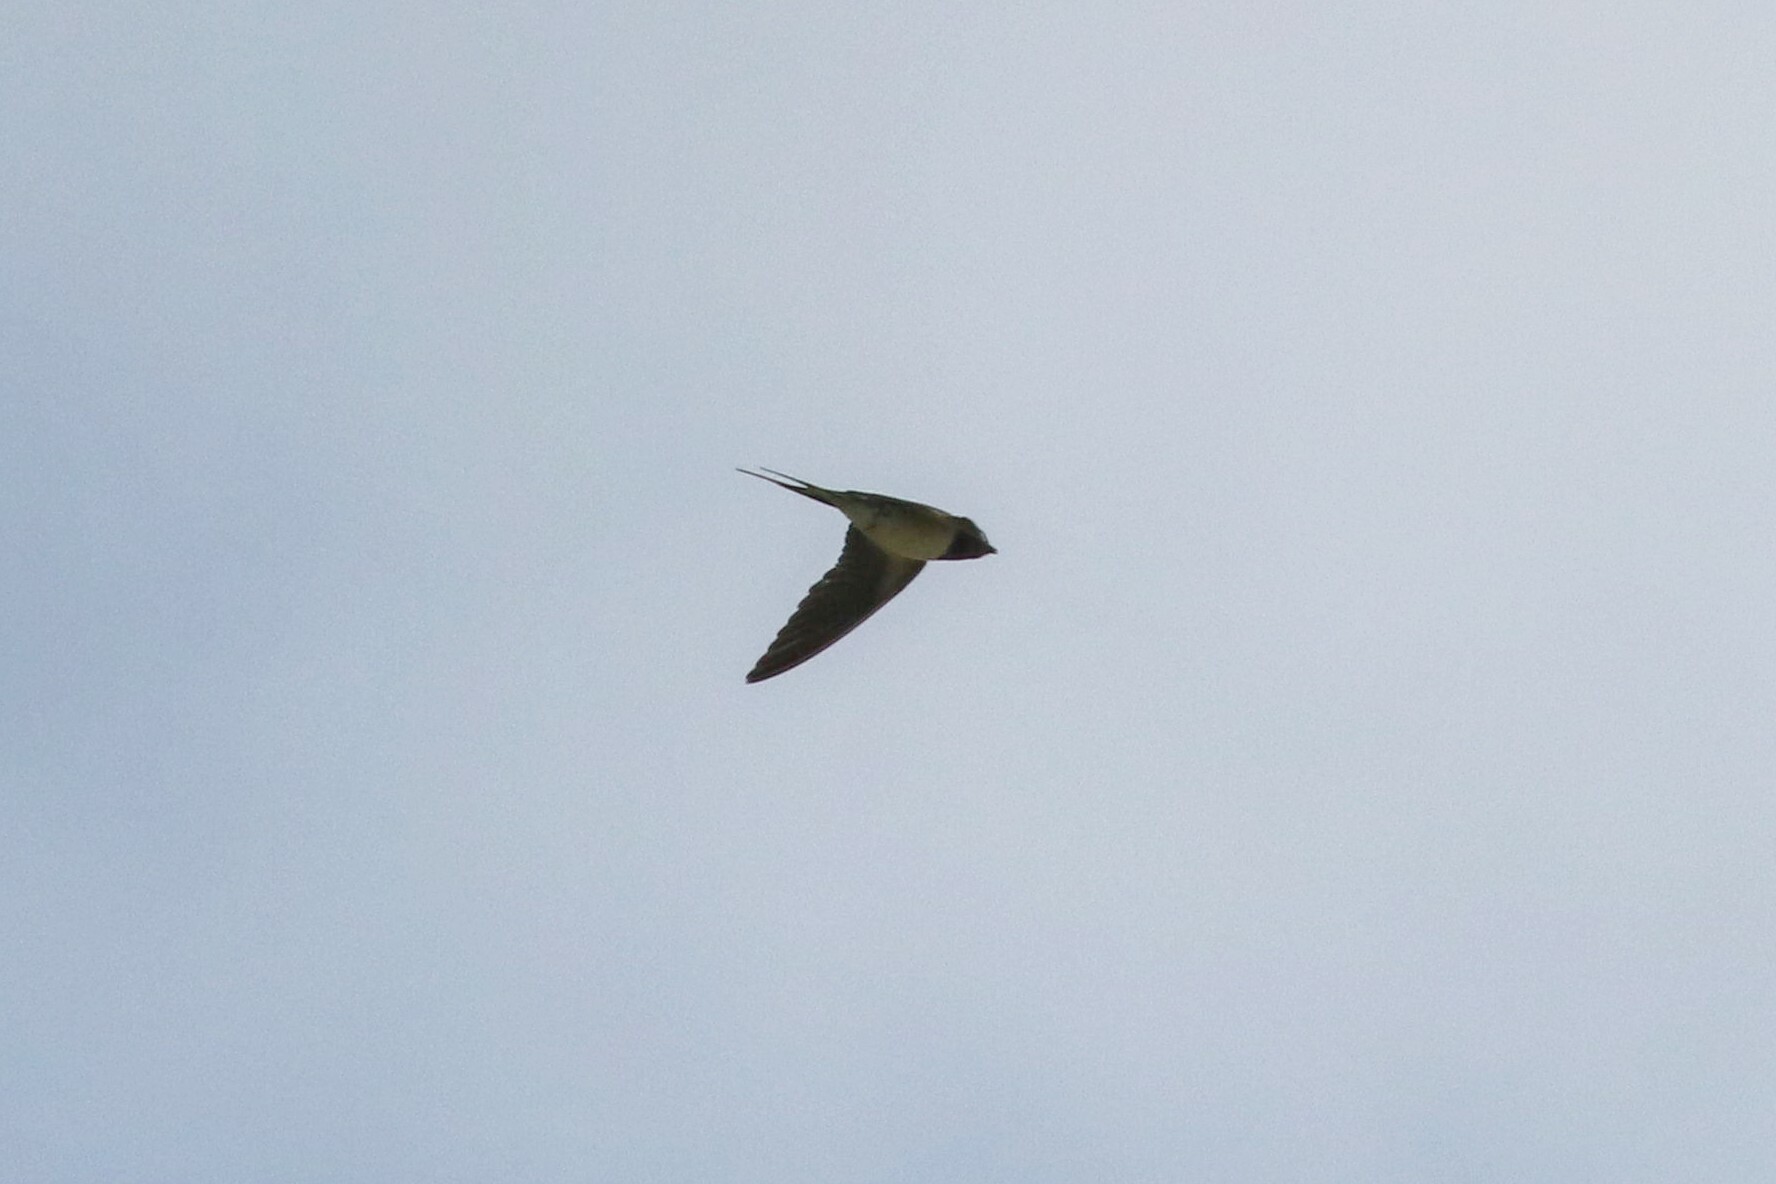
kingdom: Animalia
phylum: Chordata
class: Aves
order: Passeriformes
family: Hirundinidae
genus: Hirundo
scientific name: Hirundo rustica
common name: Barn swallow
